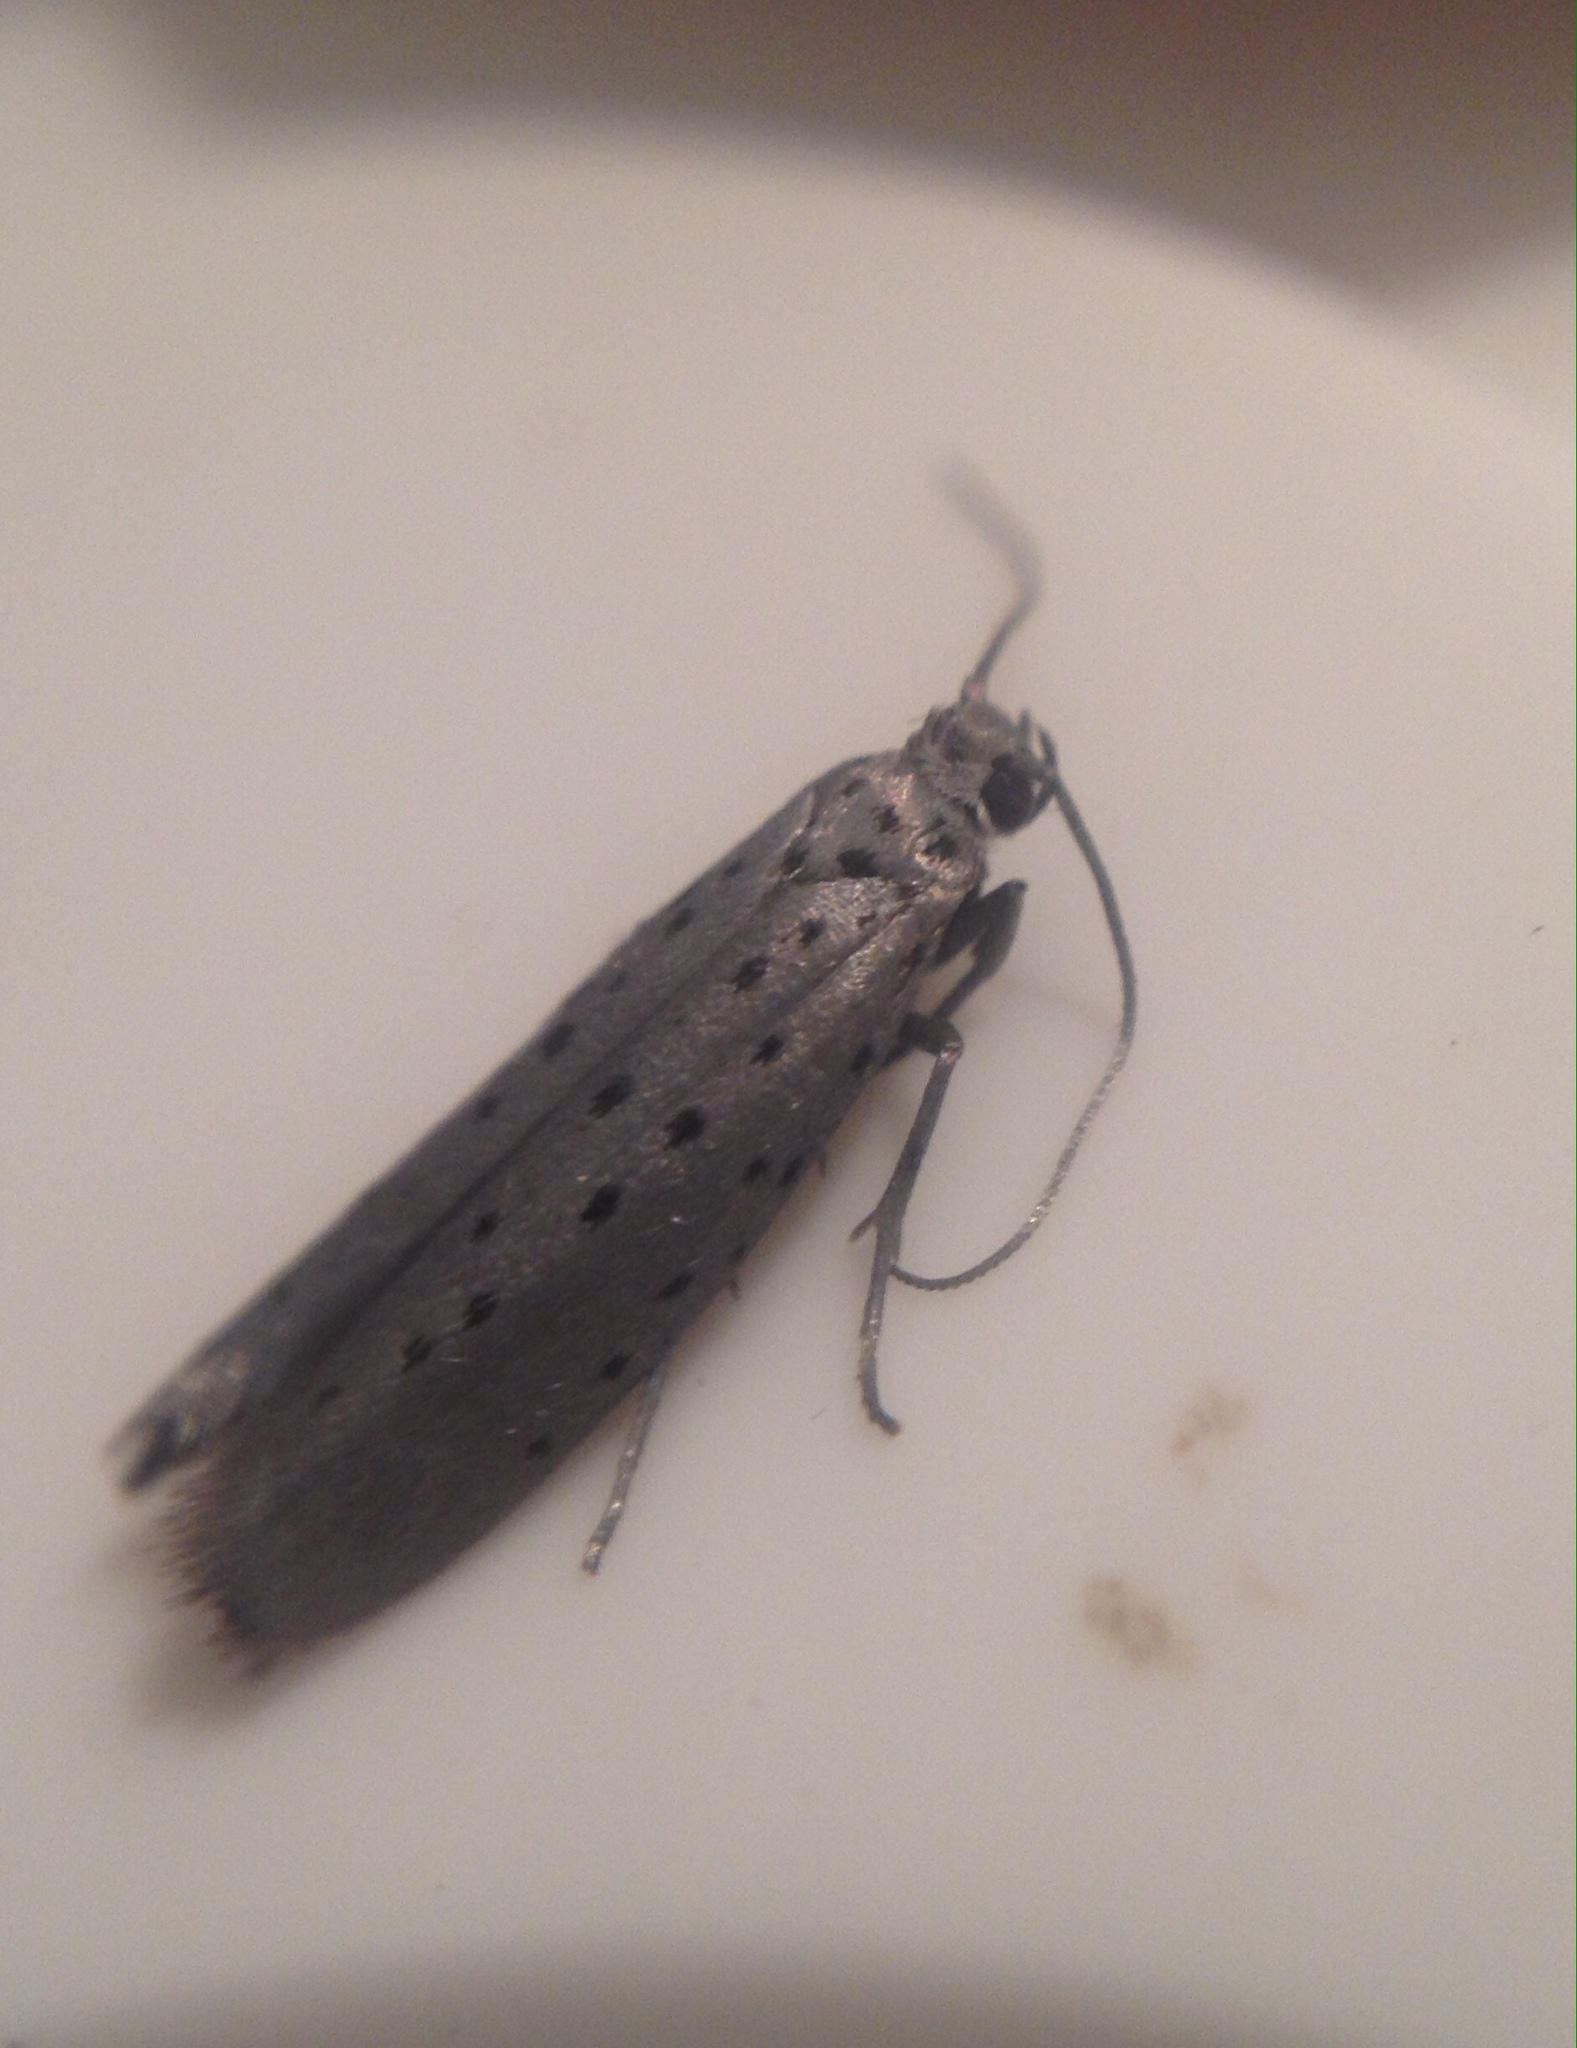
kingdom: Animalia
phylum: Arthropoda
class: Insecta
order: Lepidoptera
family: Yponomeutidae
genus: Yponomeuta
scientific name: Yponomeuta vigintipunctata
